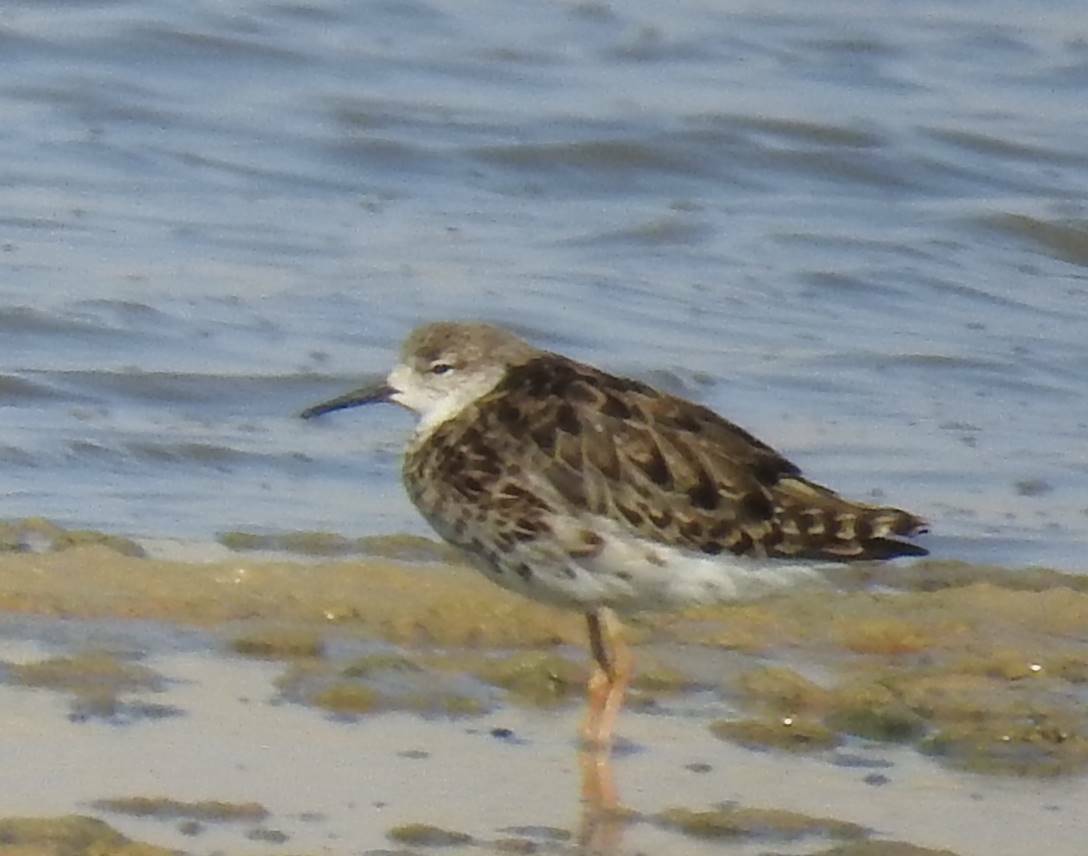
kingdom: Animalia
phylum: Chordata
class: Aves
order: Charadriiformes
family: Scolopacidae
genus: Calidris
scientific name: Calidris pugnax
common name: Ruff
